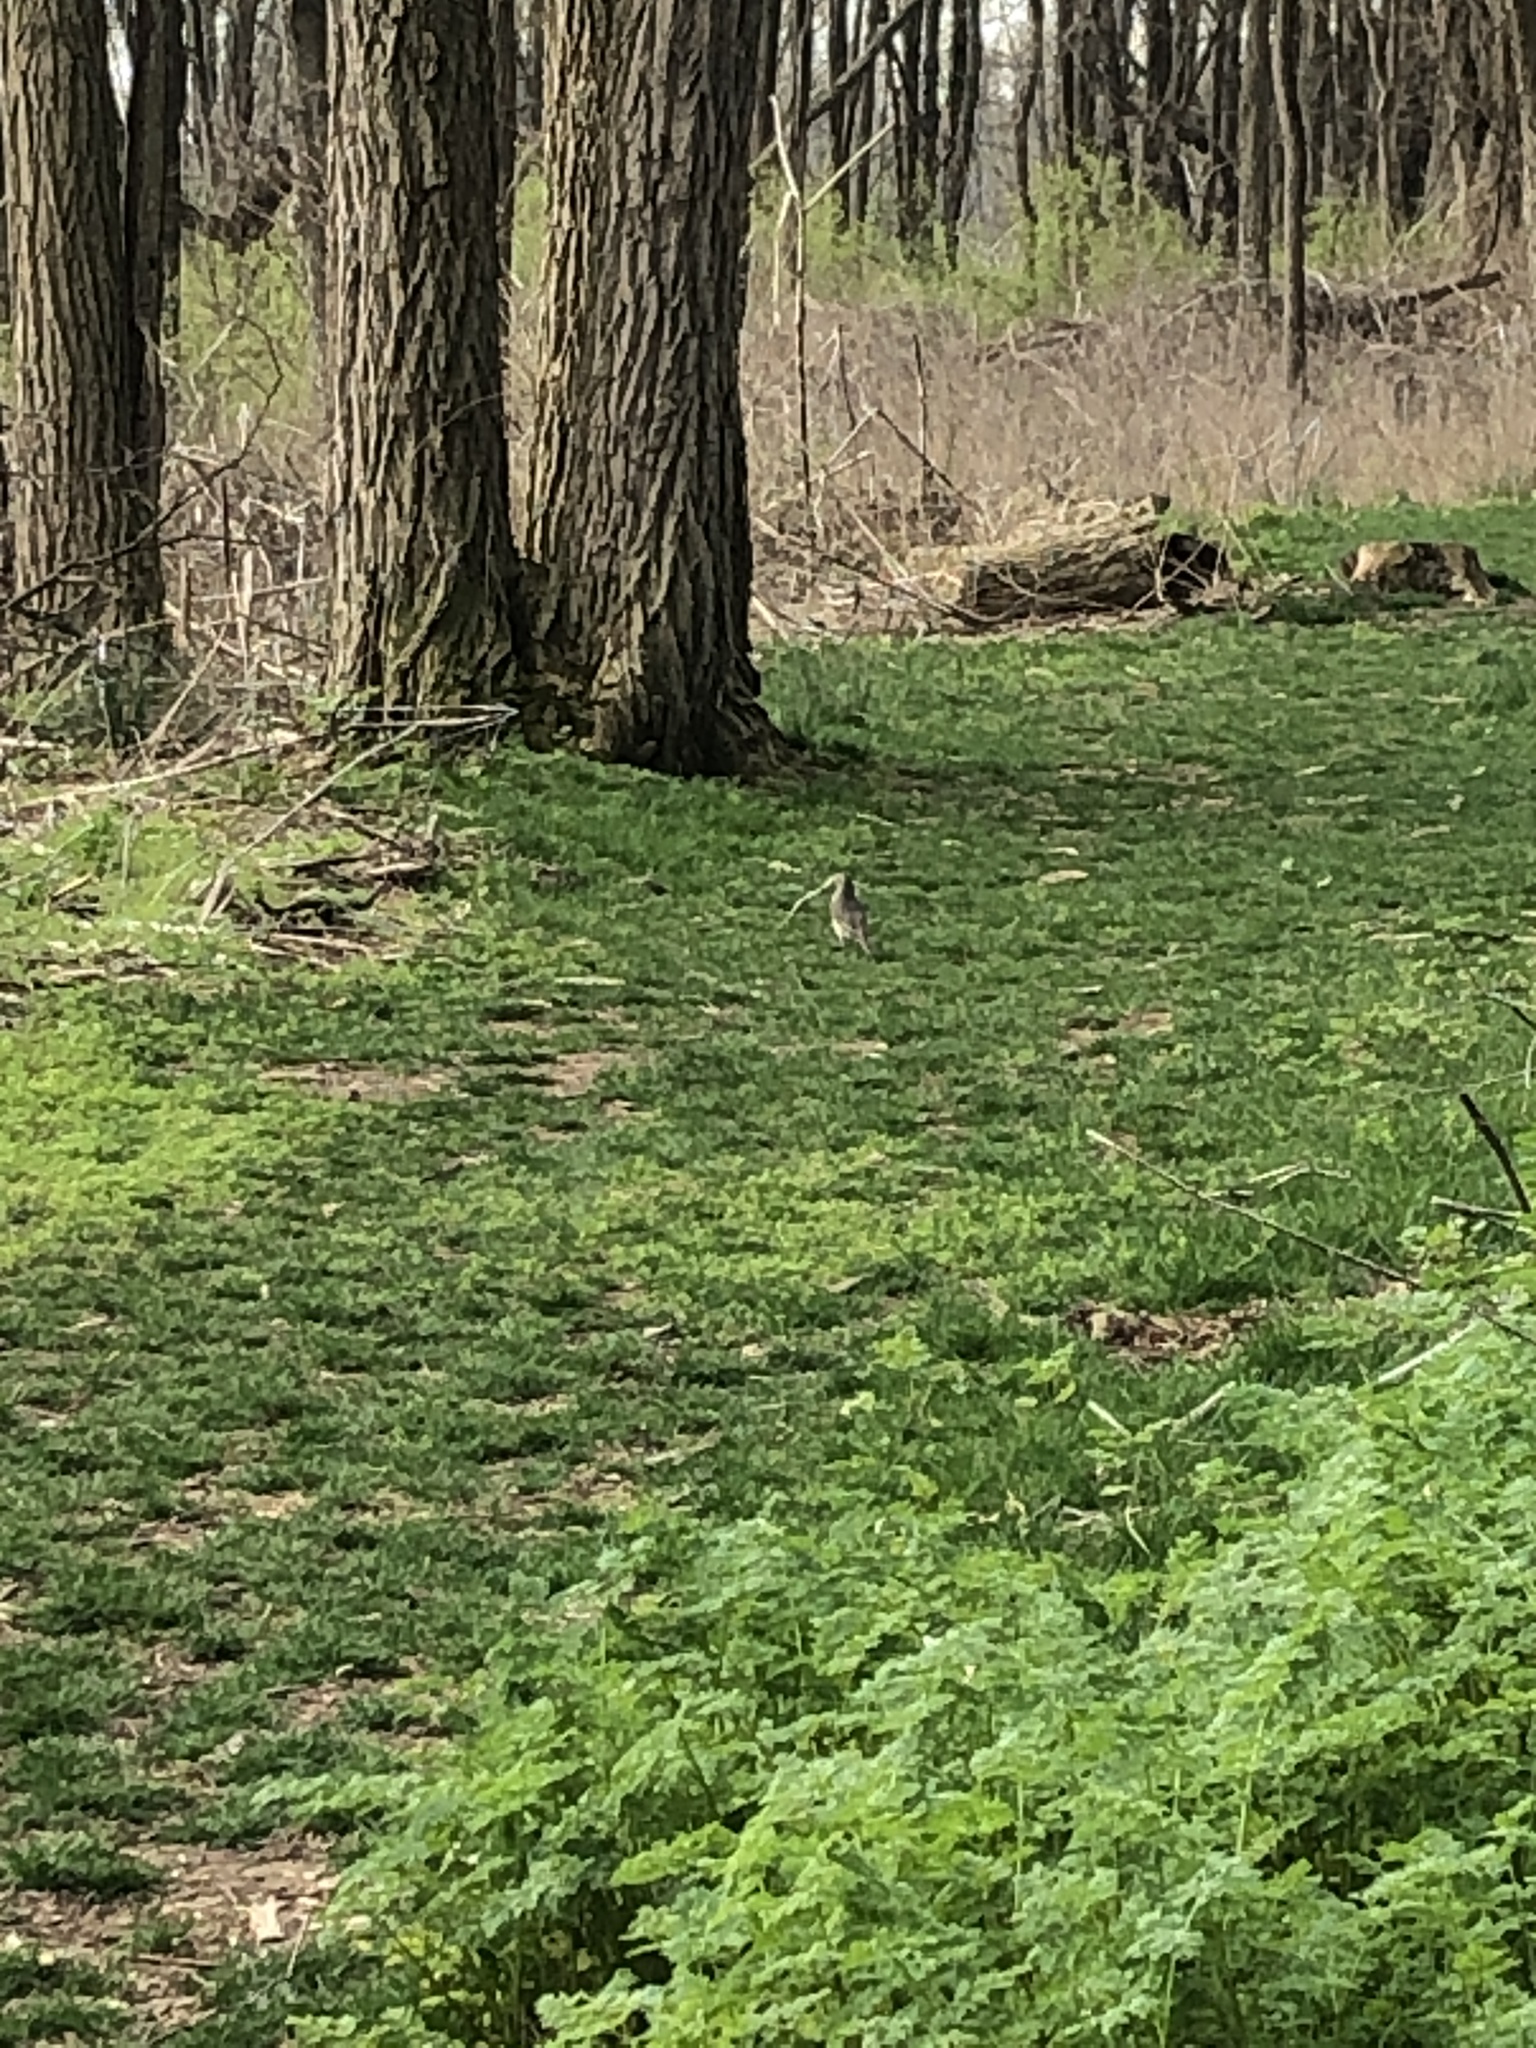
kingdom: Animalia
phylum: Chordata
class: Aves
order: Passeriformes
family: Turdidae
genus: Turdus
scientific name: Turdus migratorius
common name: American robin
